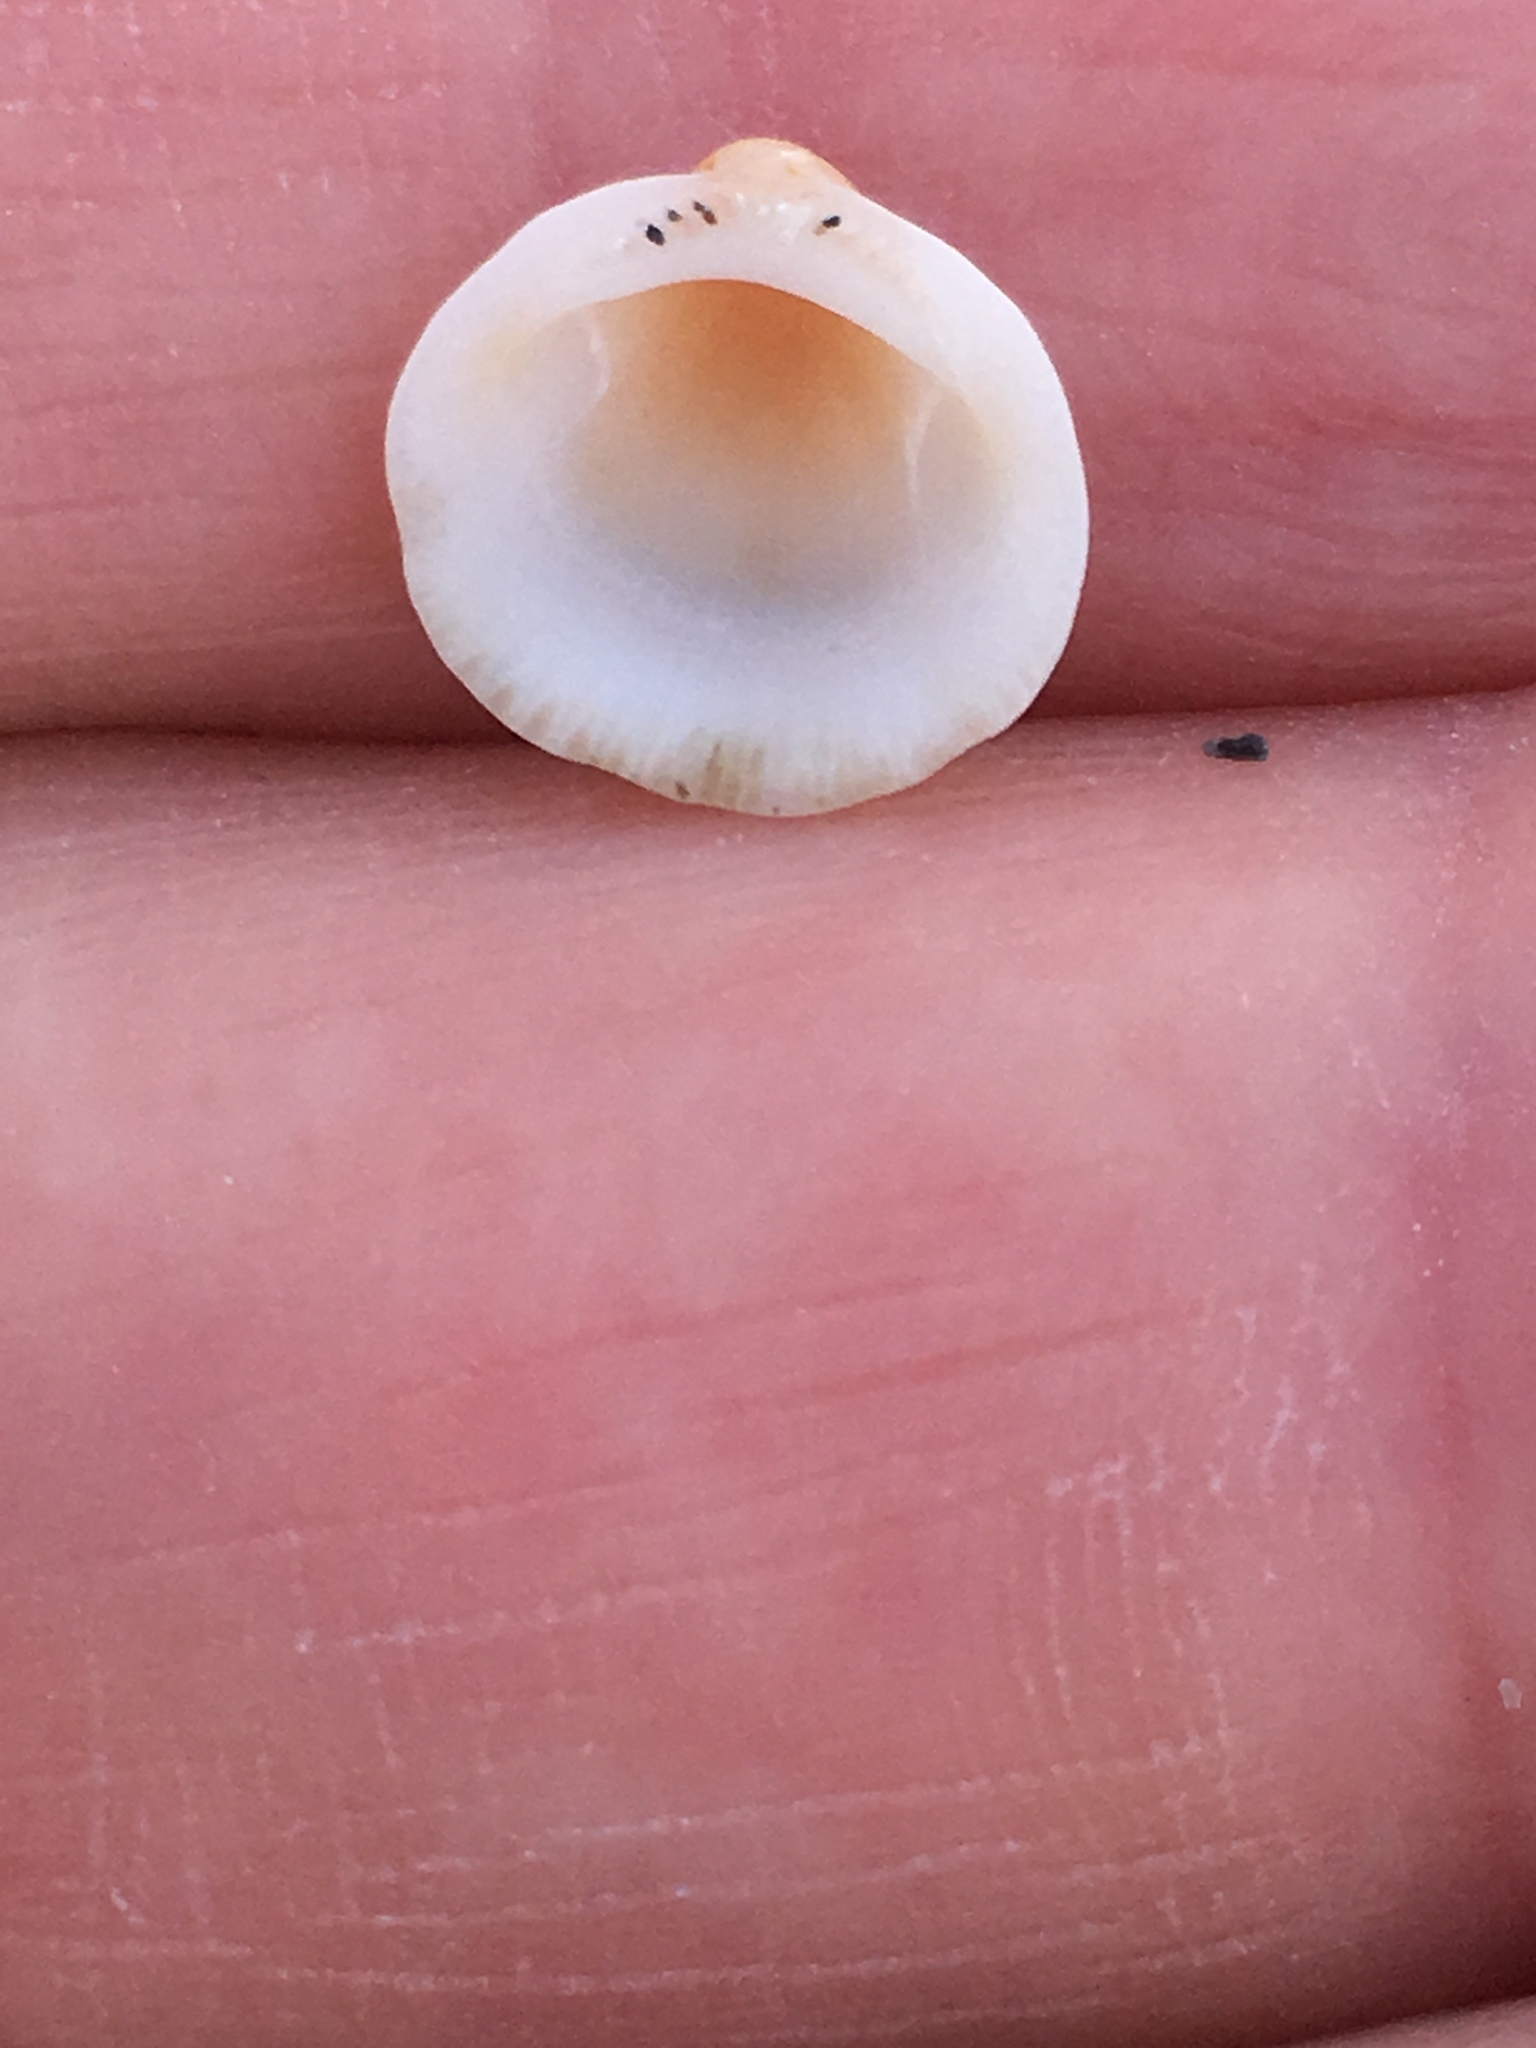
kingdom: Animalia
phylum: Mollusca
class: Bivalvia
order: Arcida
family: Glycymerididae
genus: Glycymeris
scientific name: Glycymeris spectralis
